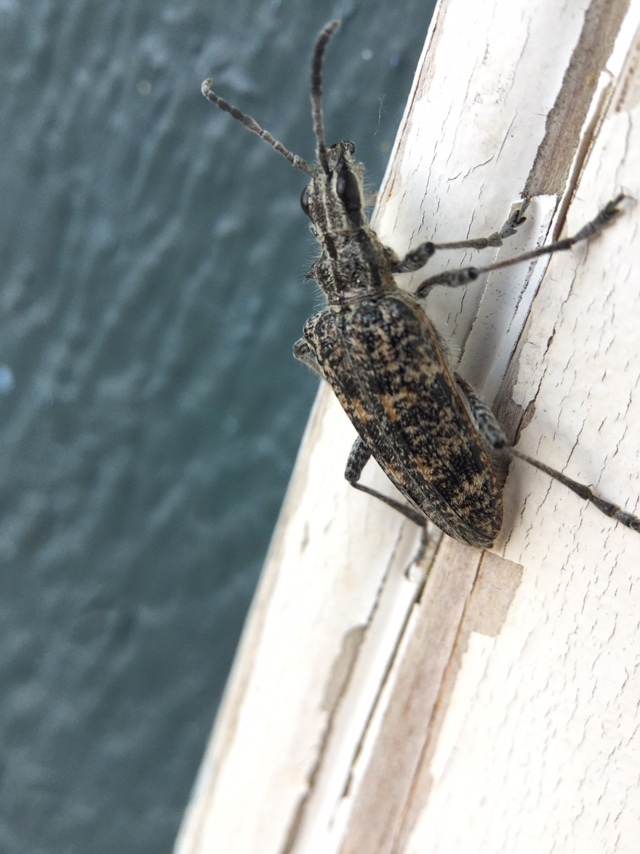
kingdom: Animalia
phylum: Arthropoda
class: Insecta
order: Coleoptera
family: Cerambycidae
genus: Rhagium
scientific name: Rhagium inquisitor
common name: Ribbed pine borer
